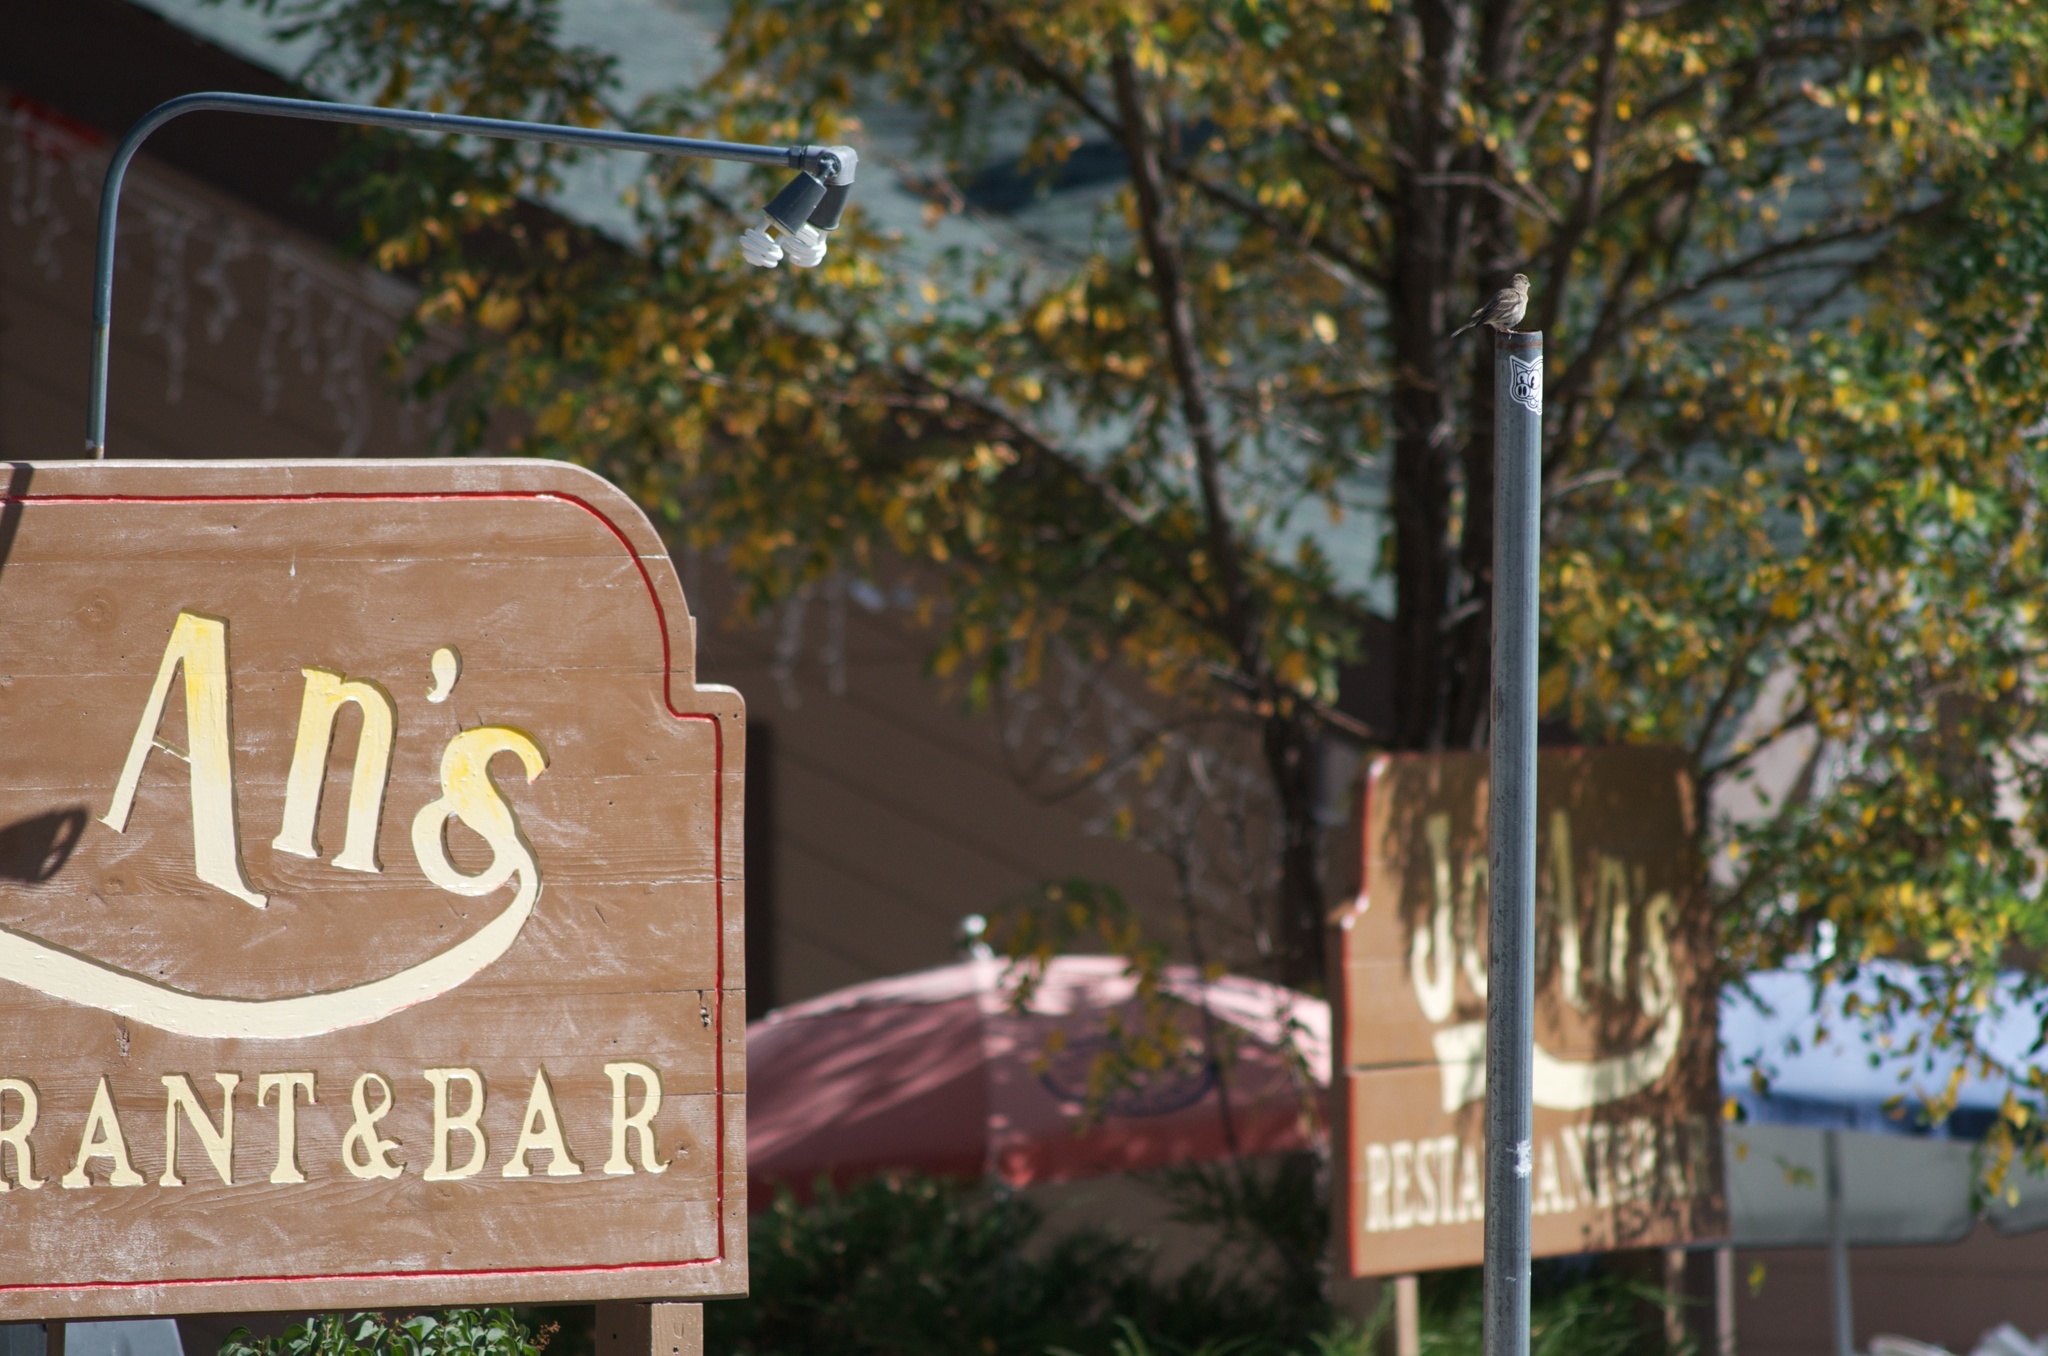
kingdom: Animalia
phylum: Chordata
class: Aves
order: Passeriformes
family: Fringillidae
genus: Haemorhous
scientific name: Haemorhous mexicanus
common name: House finch
